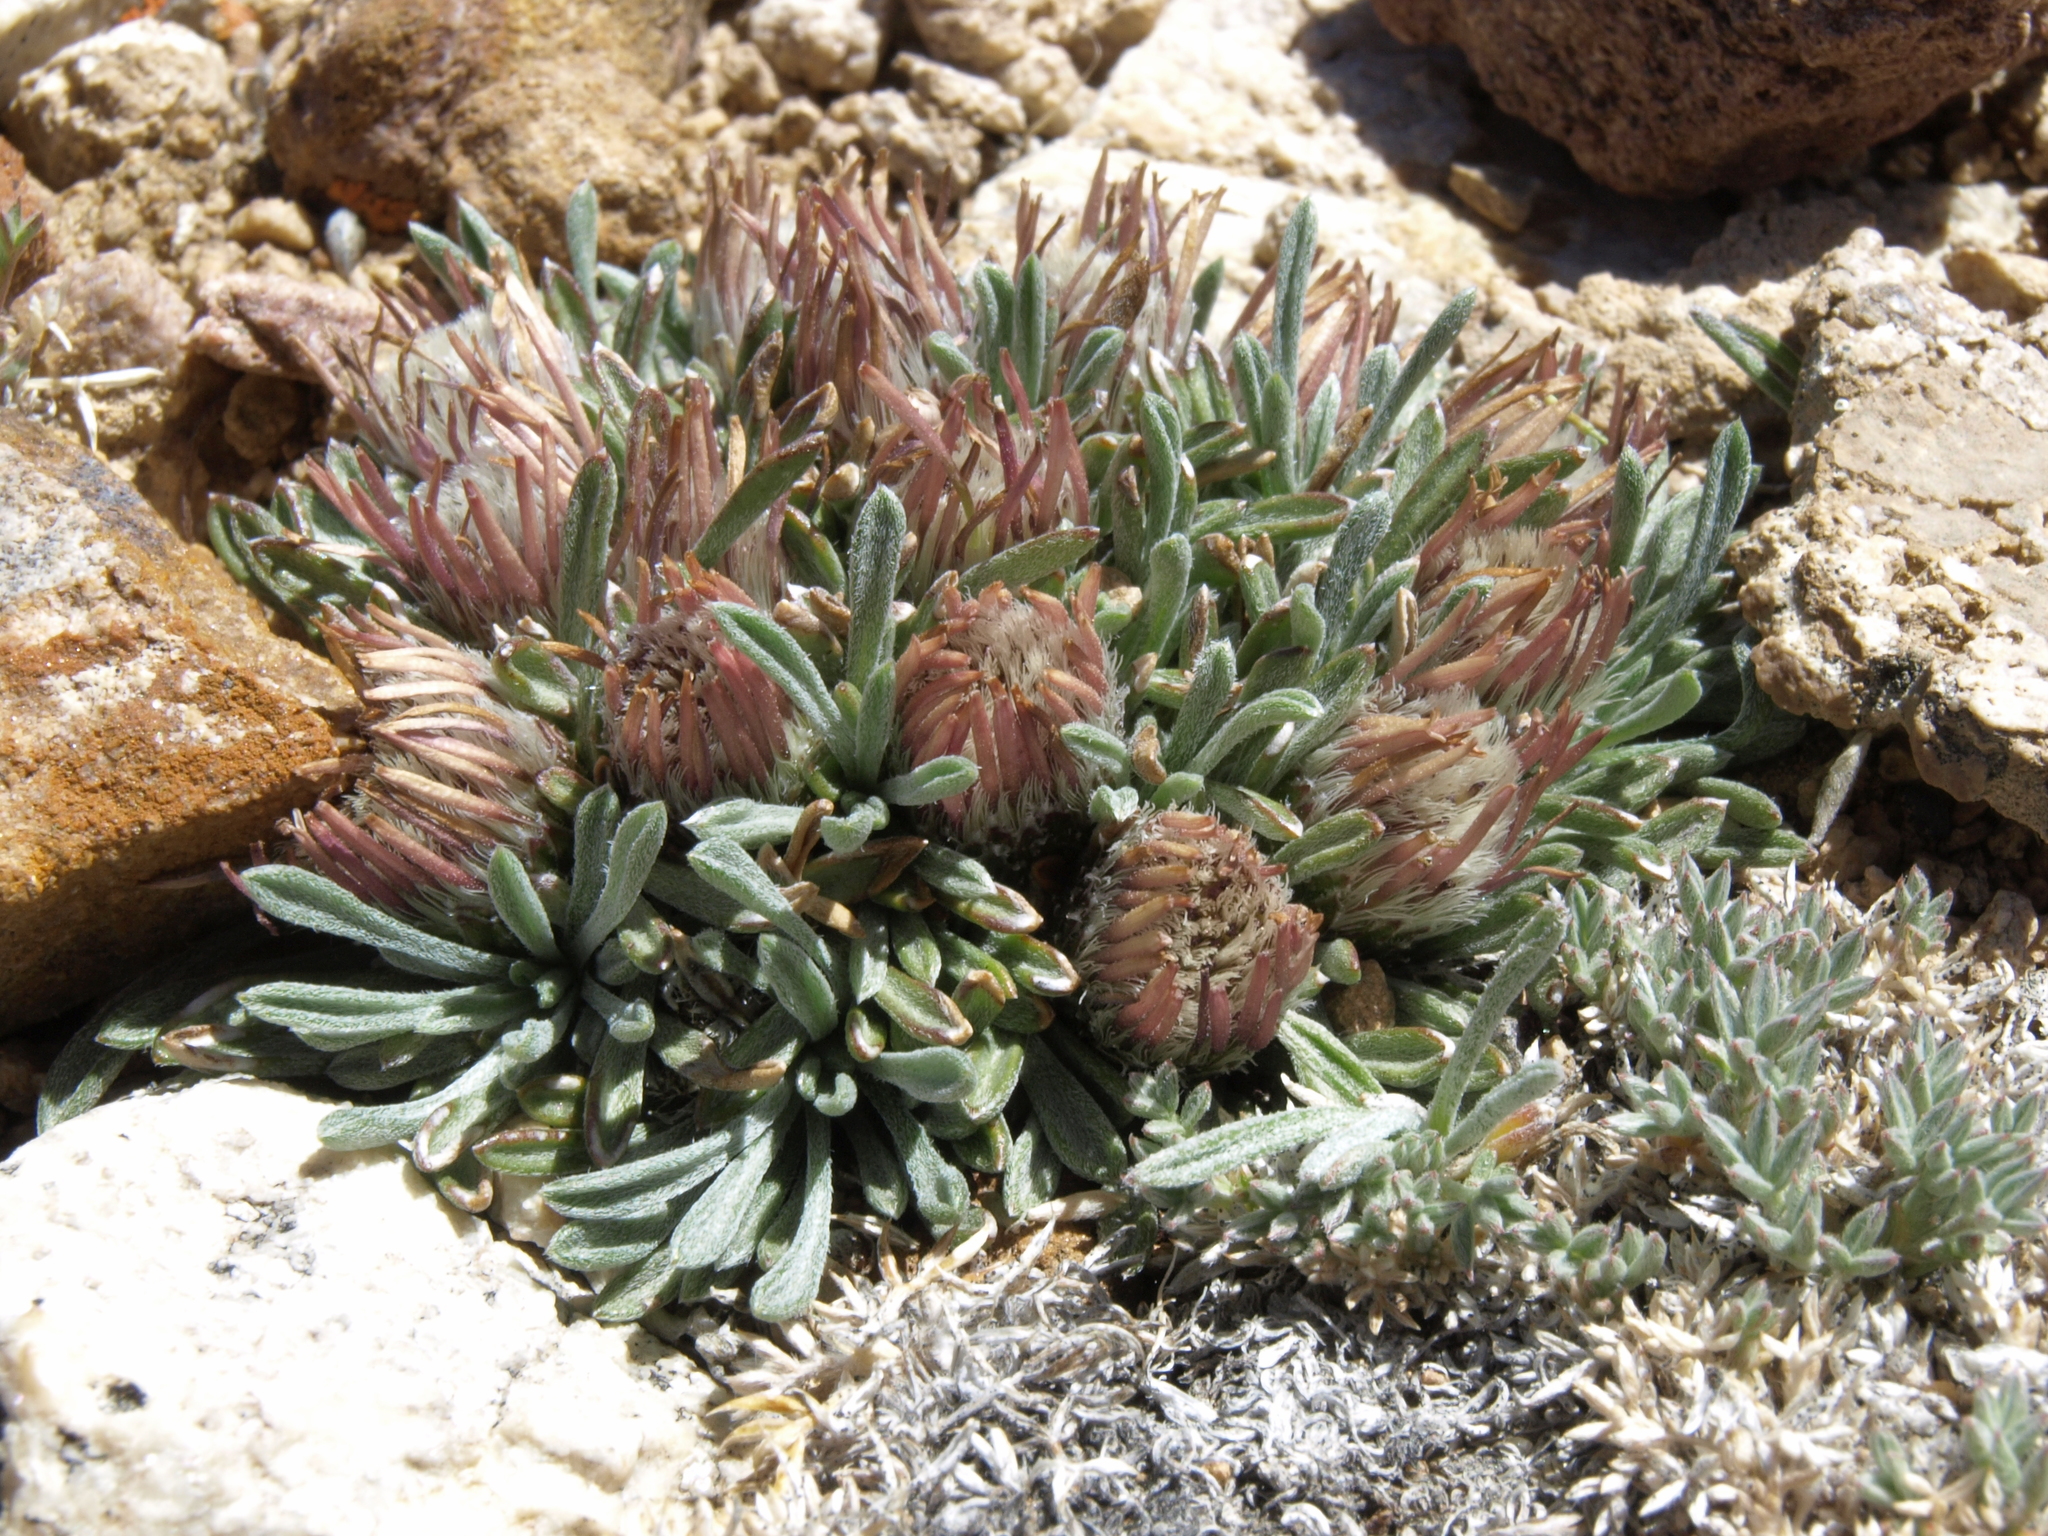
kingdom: Plantae
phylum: Tracheophyta
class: Magnoliopsida
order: Asterales
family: Asteraceae
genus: Townsendia
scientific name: Townsendia leptotes
